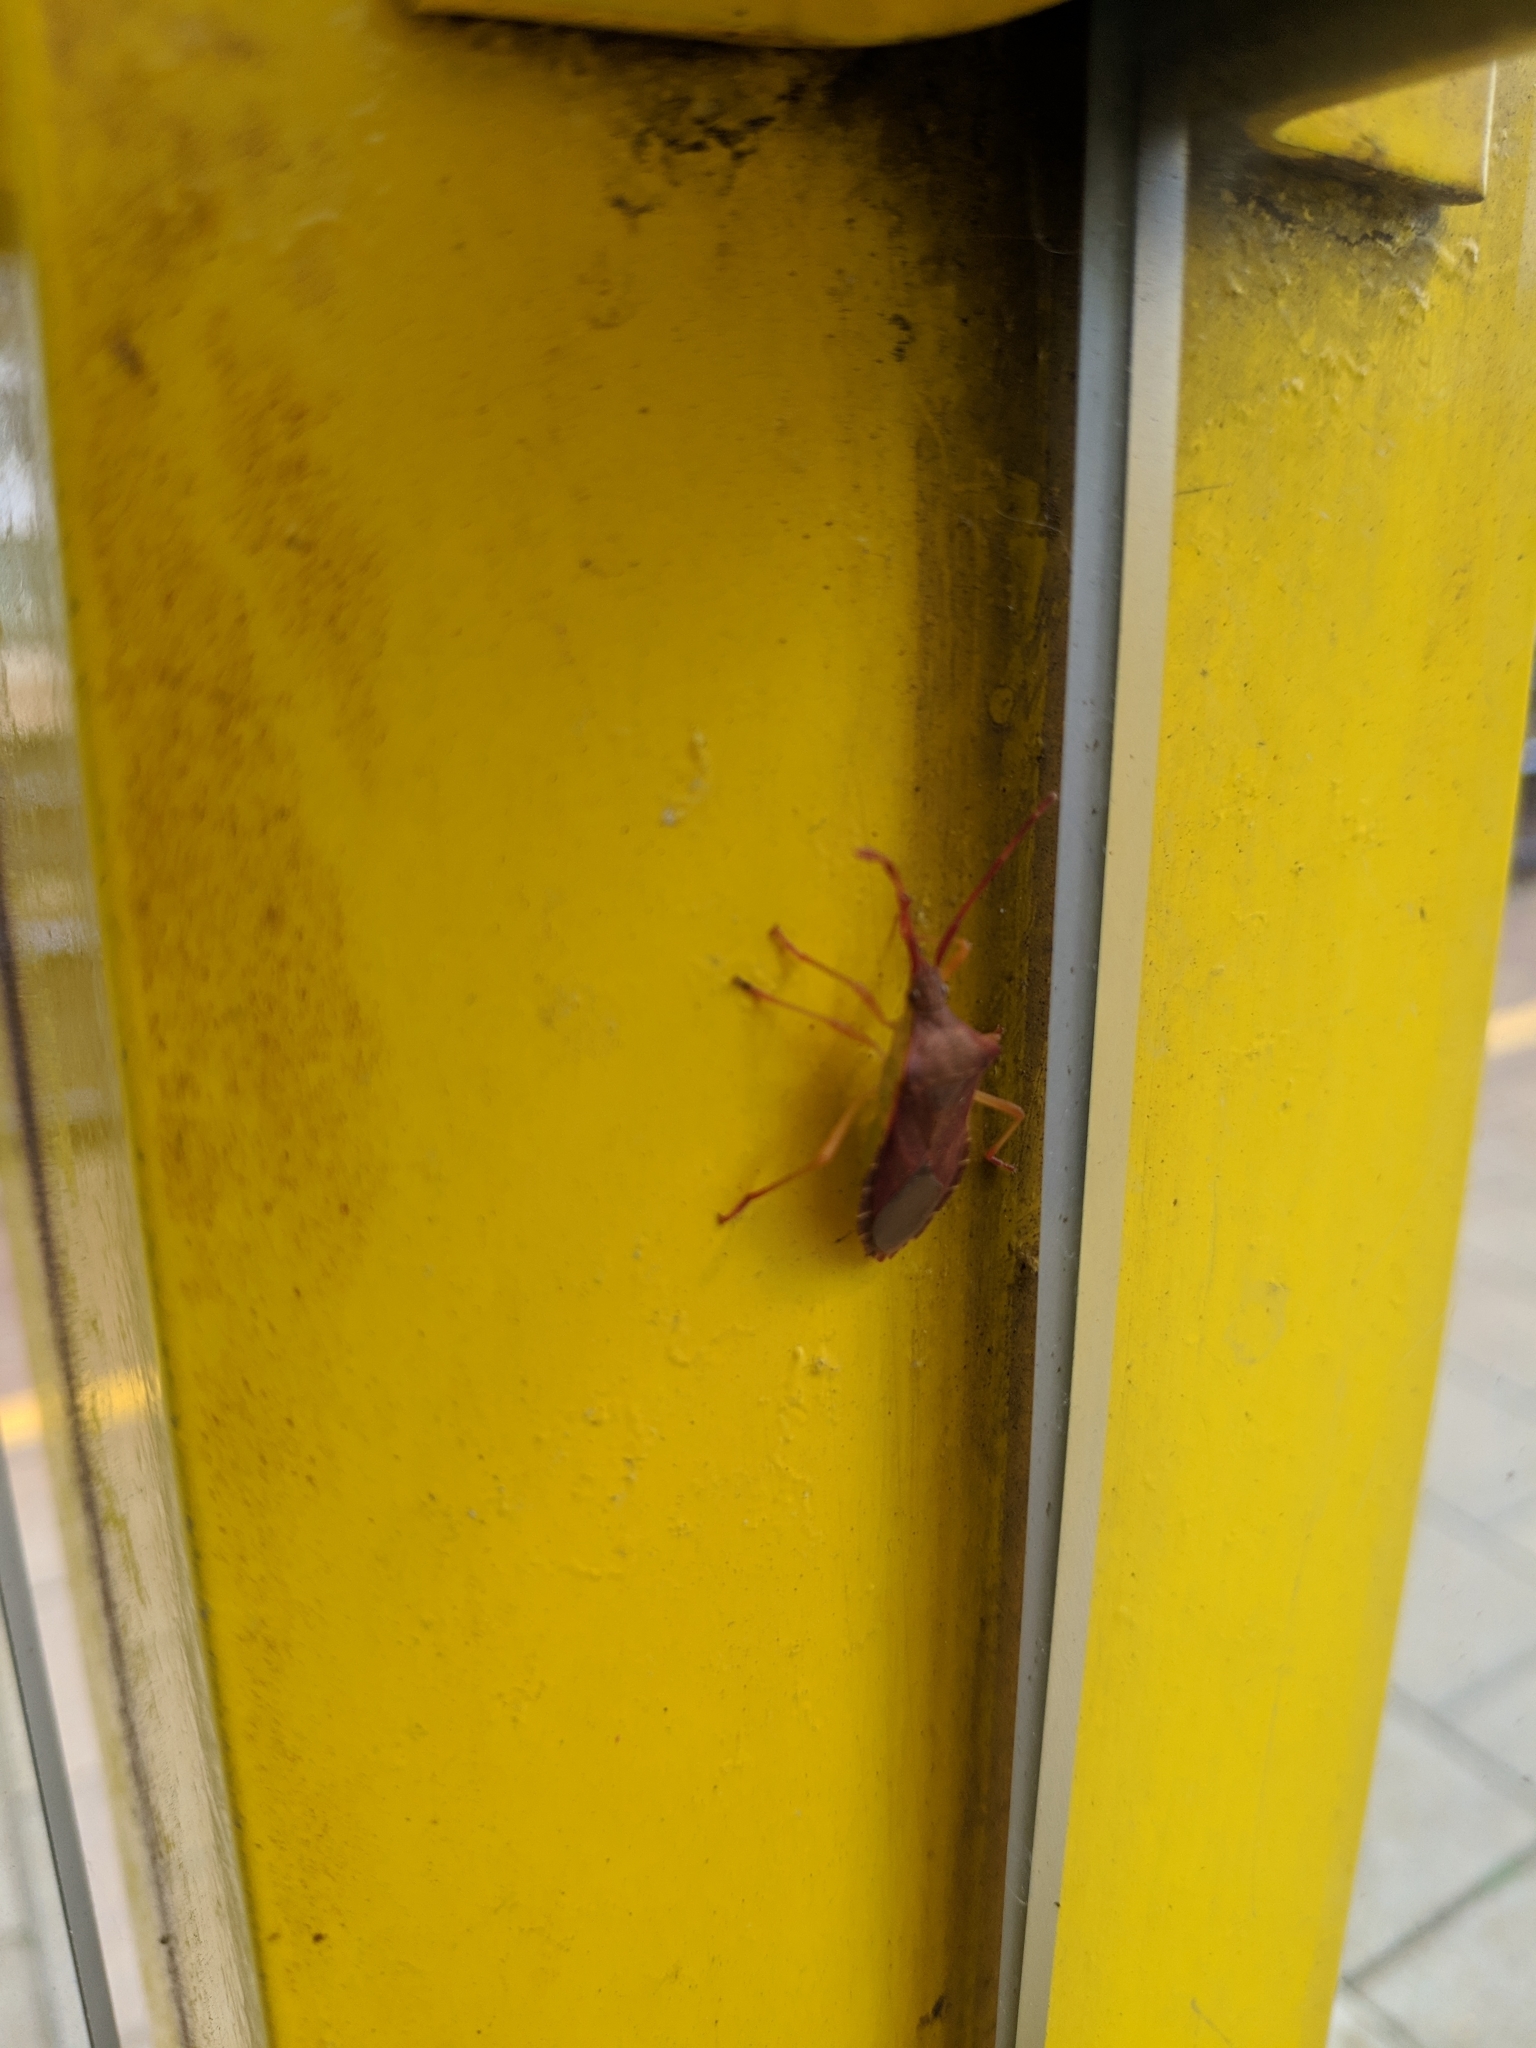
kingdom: Animalia
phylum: Arthropoda
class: Insecta
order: Hemiptera
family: Coreidae
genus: Gonocerus
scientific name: Gonocerus acuteangulatus
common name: Box bug
